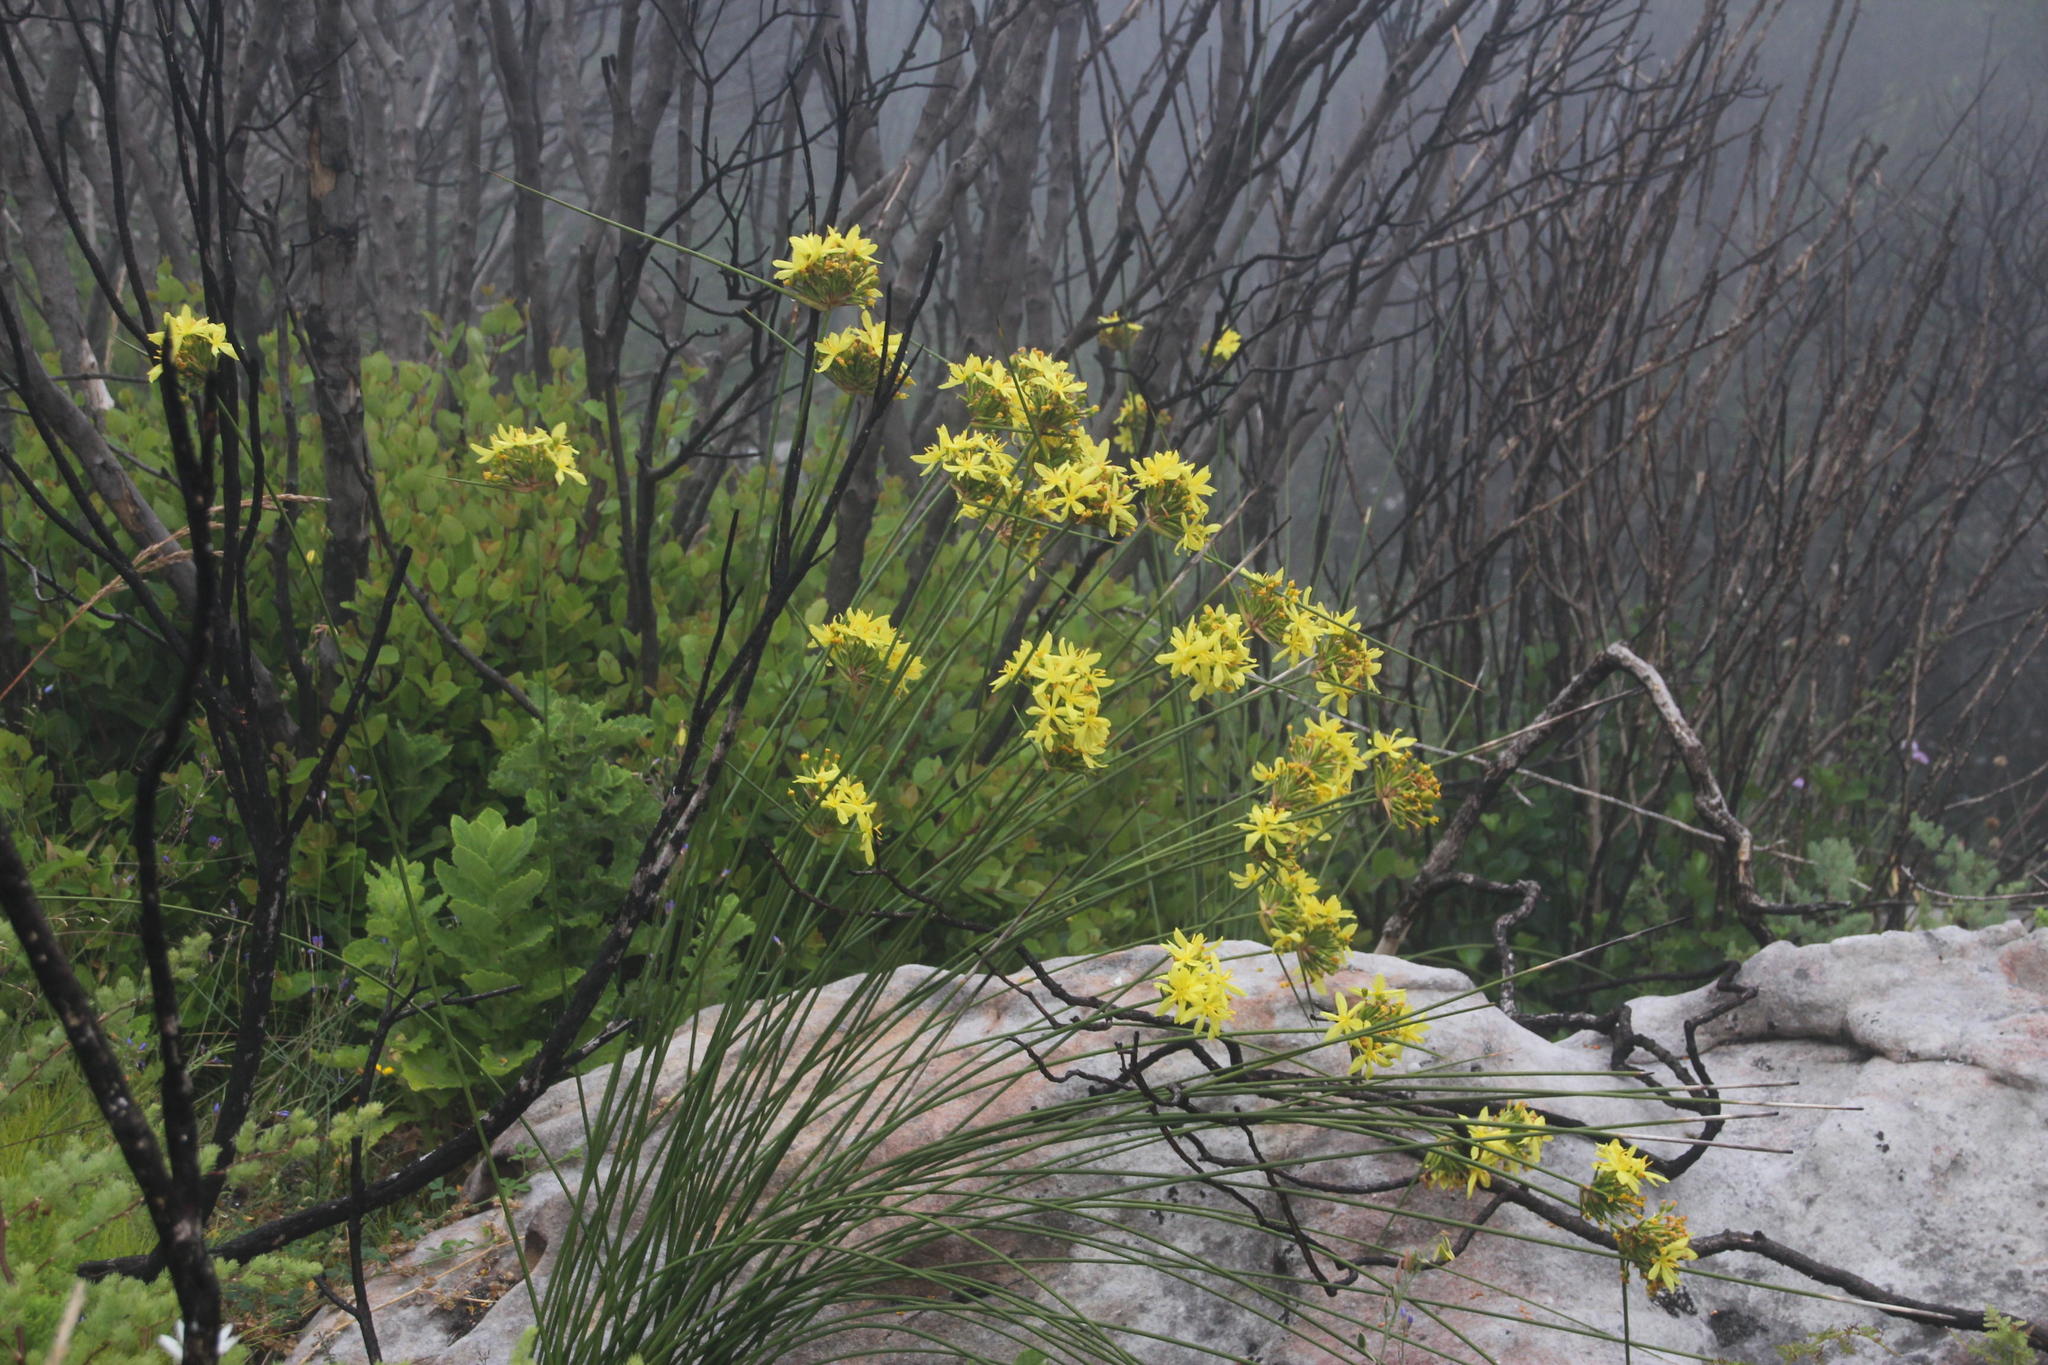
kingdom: Plantae
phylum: Tracheophyta
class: Liliopsida
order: Asparagales
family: Iridaceae
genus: Bobartia
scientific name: Bobartia indica
